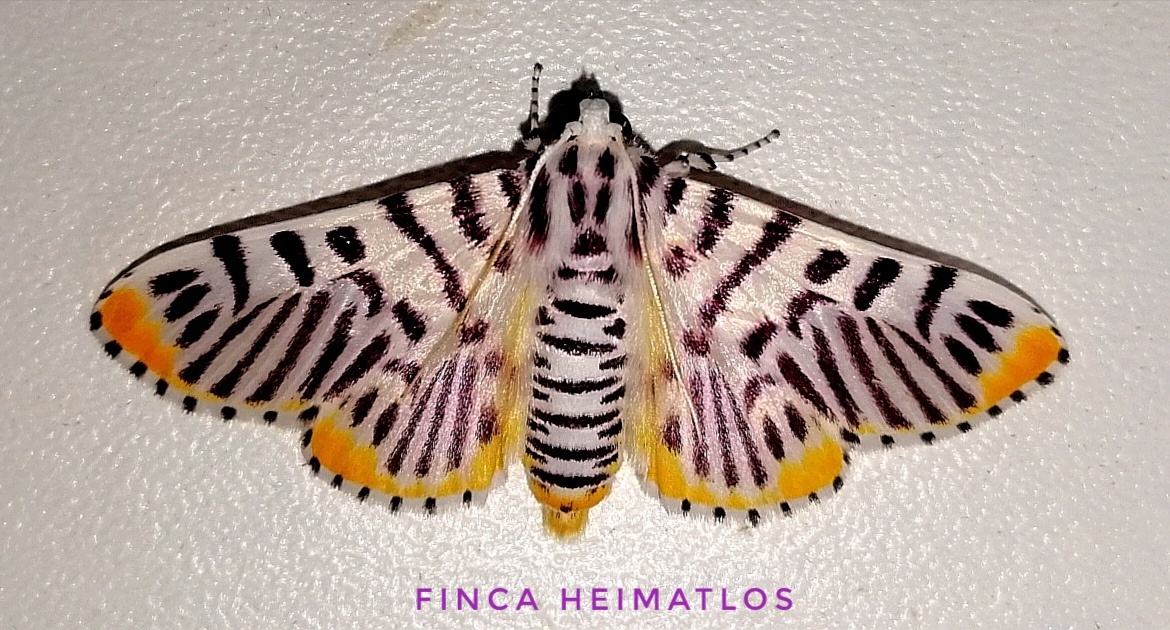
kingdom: Animalia
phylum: Arthropoda
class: Insecta
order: Lepidoptera
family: Crambidae
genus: Polygrammodes
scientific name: Polygrammodes maccalis
